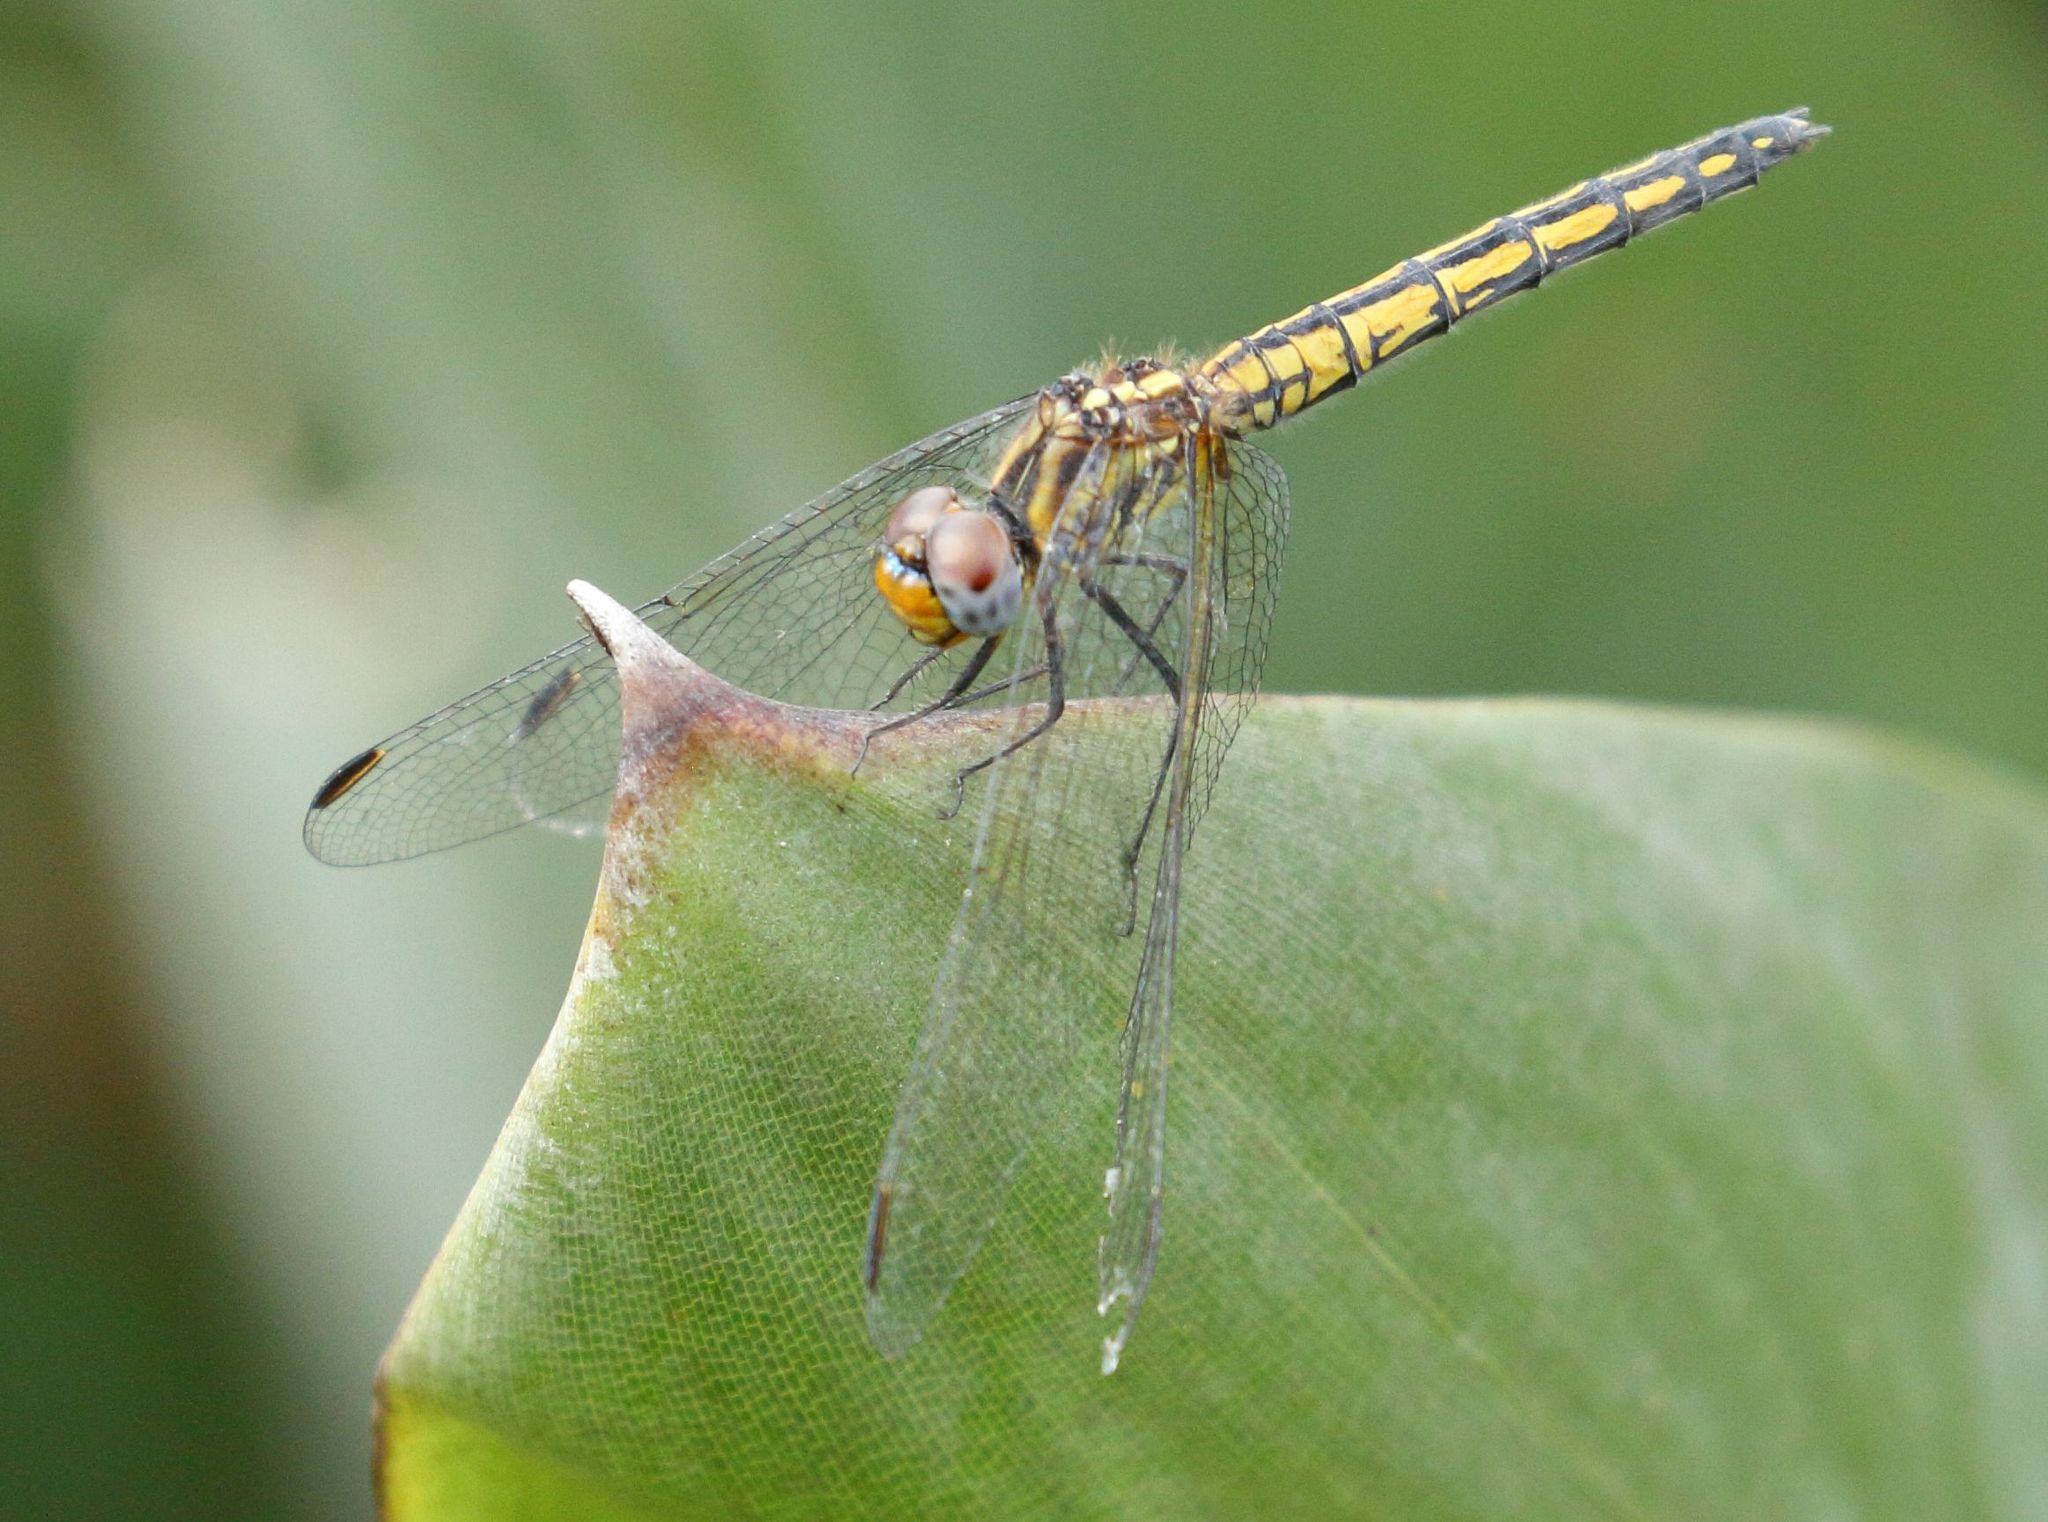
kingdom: Animalia
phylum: Arthropoda
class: Insecta
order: Odonata
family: Libellulidae
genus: Trithemis
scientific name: Trithemis furva
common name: Dark dropwing
